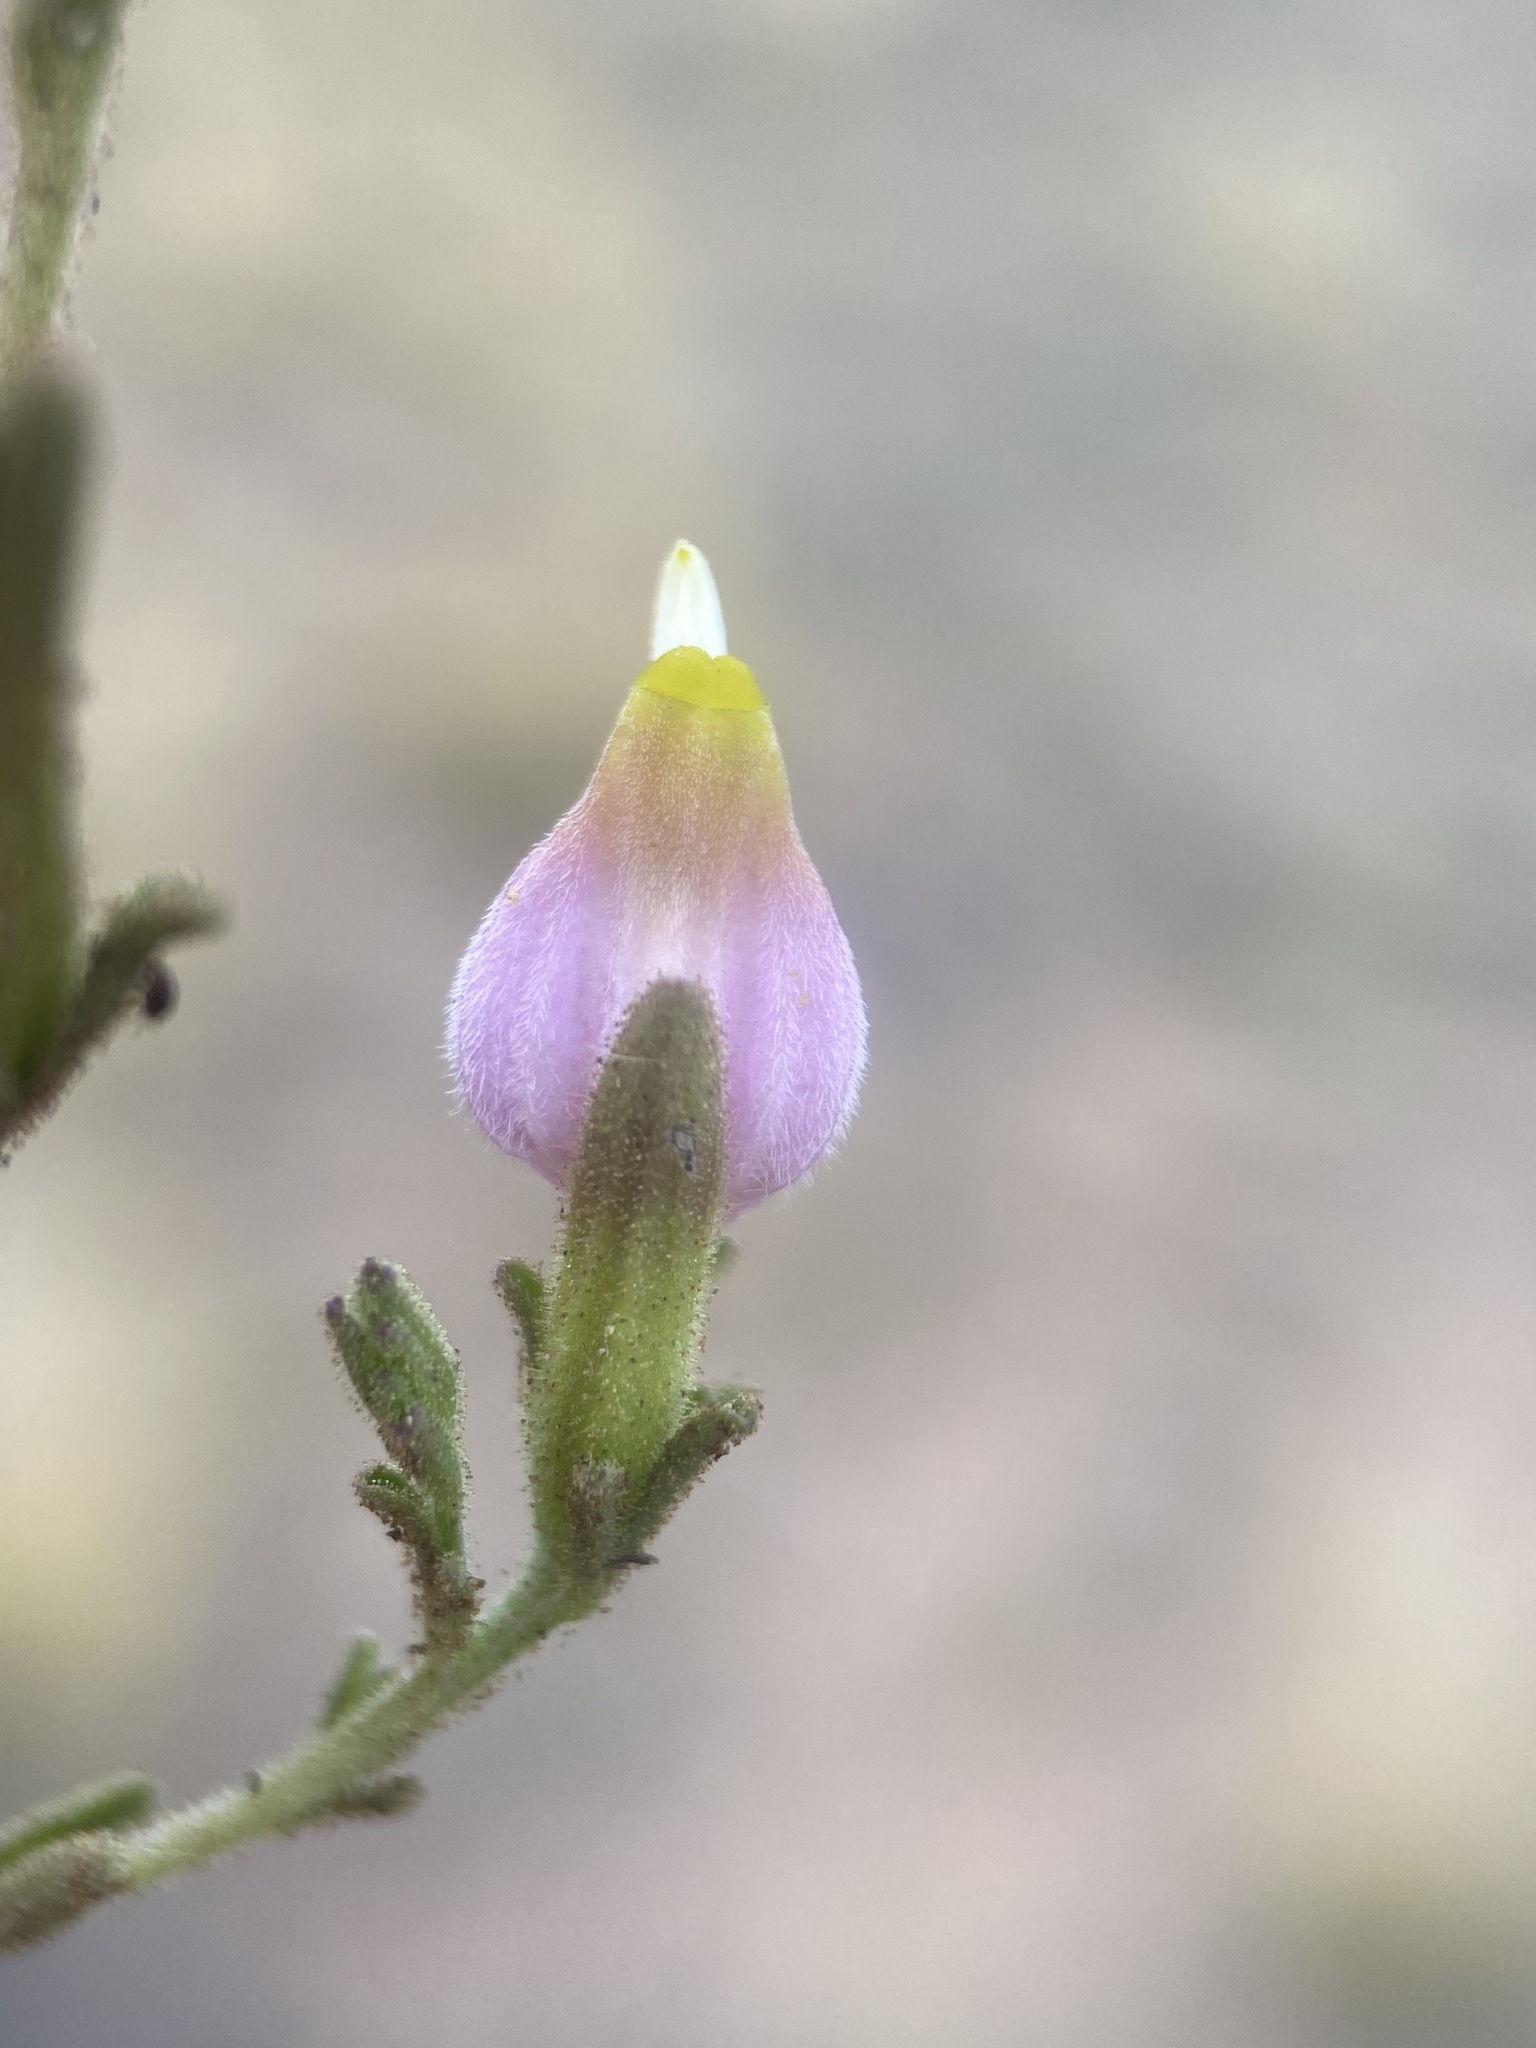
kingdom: Plantae
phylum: Tracheophyta
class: Magnoliopsida
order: Lamiales
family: Orobanchaceae
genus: Cordylanthus
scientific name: Cordylanthus parviflorus
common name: Purple bird's-beak
